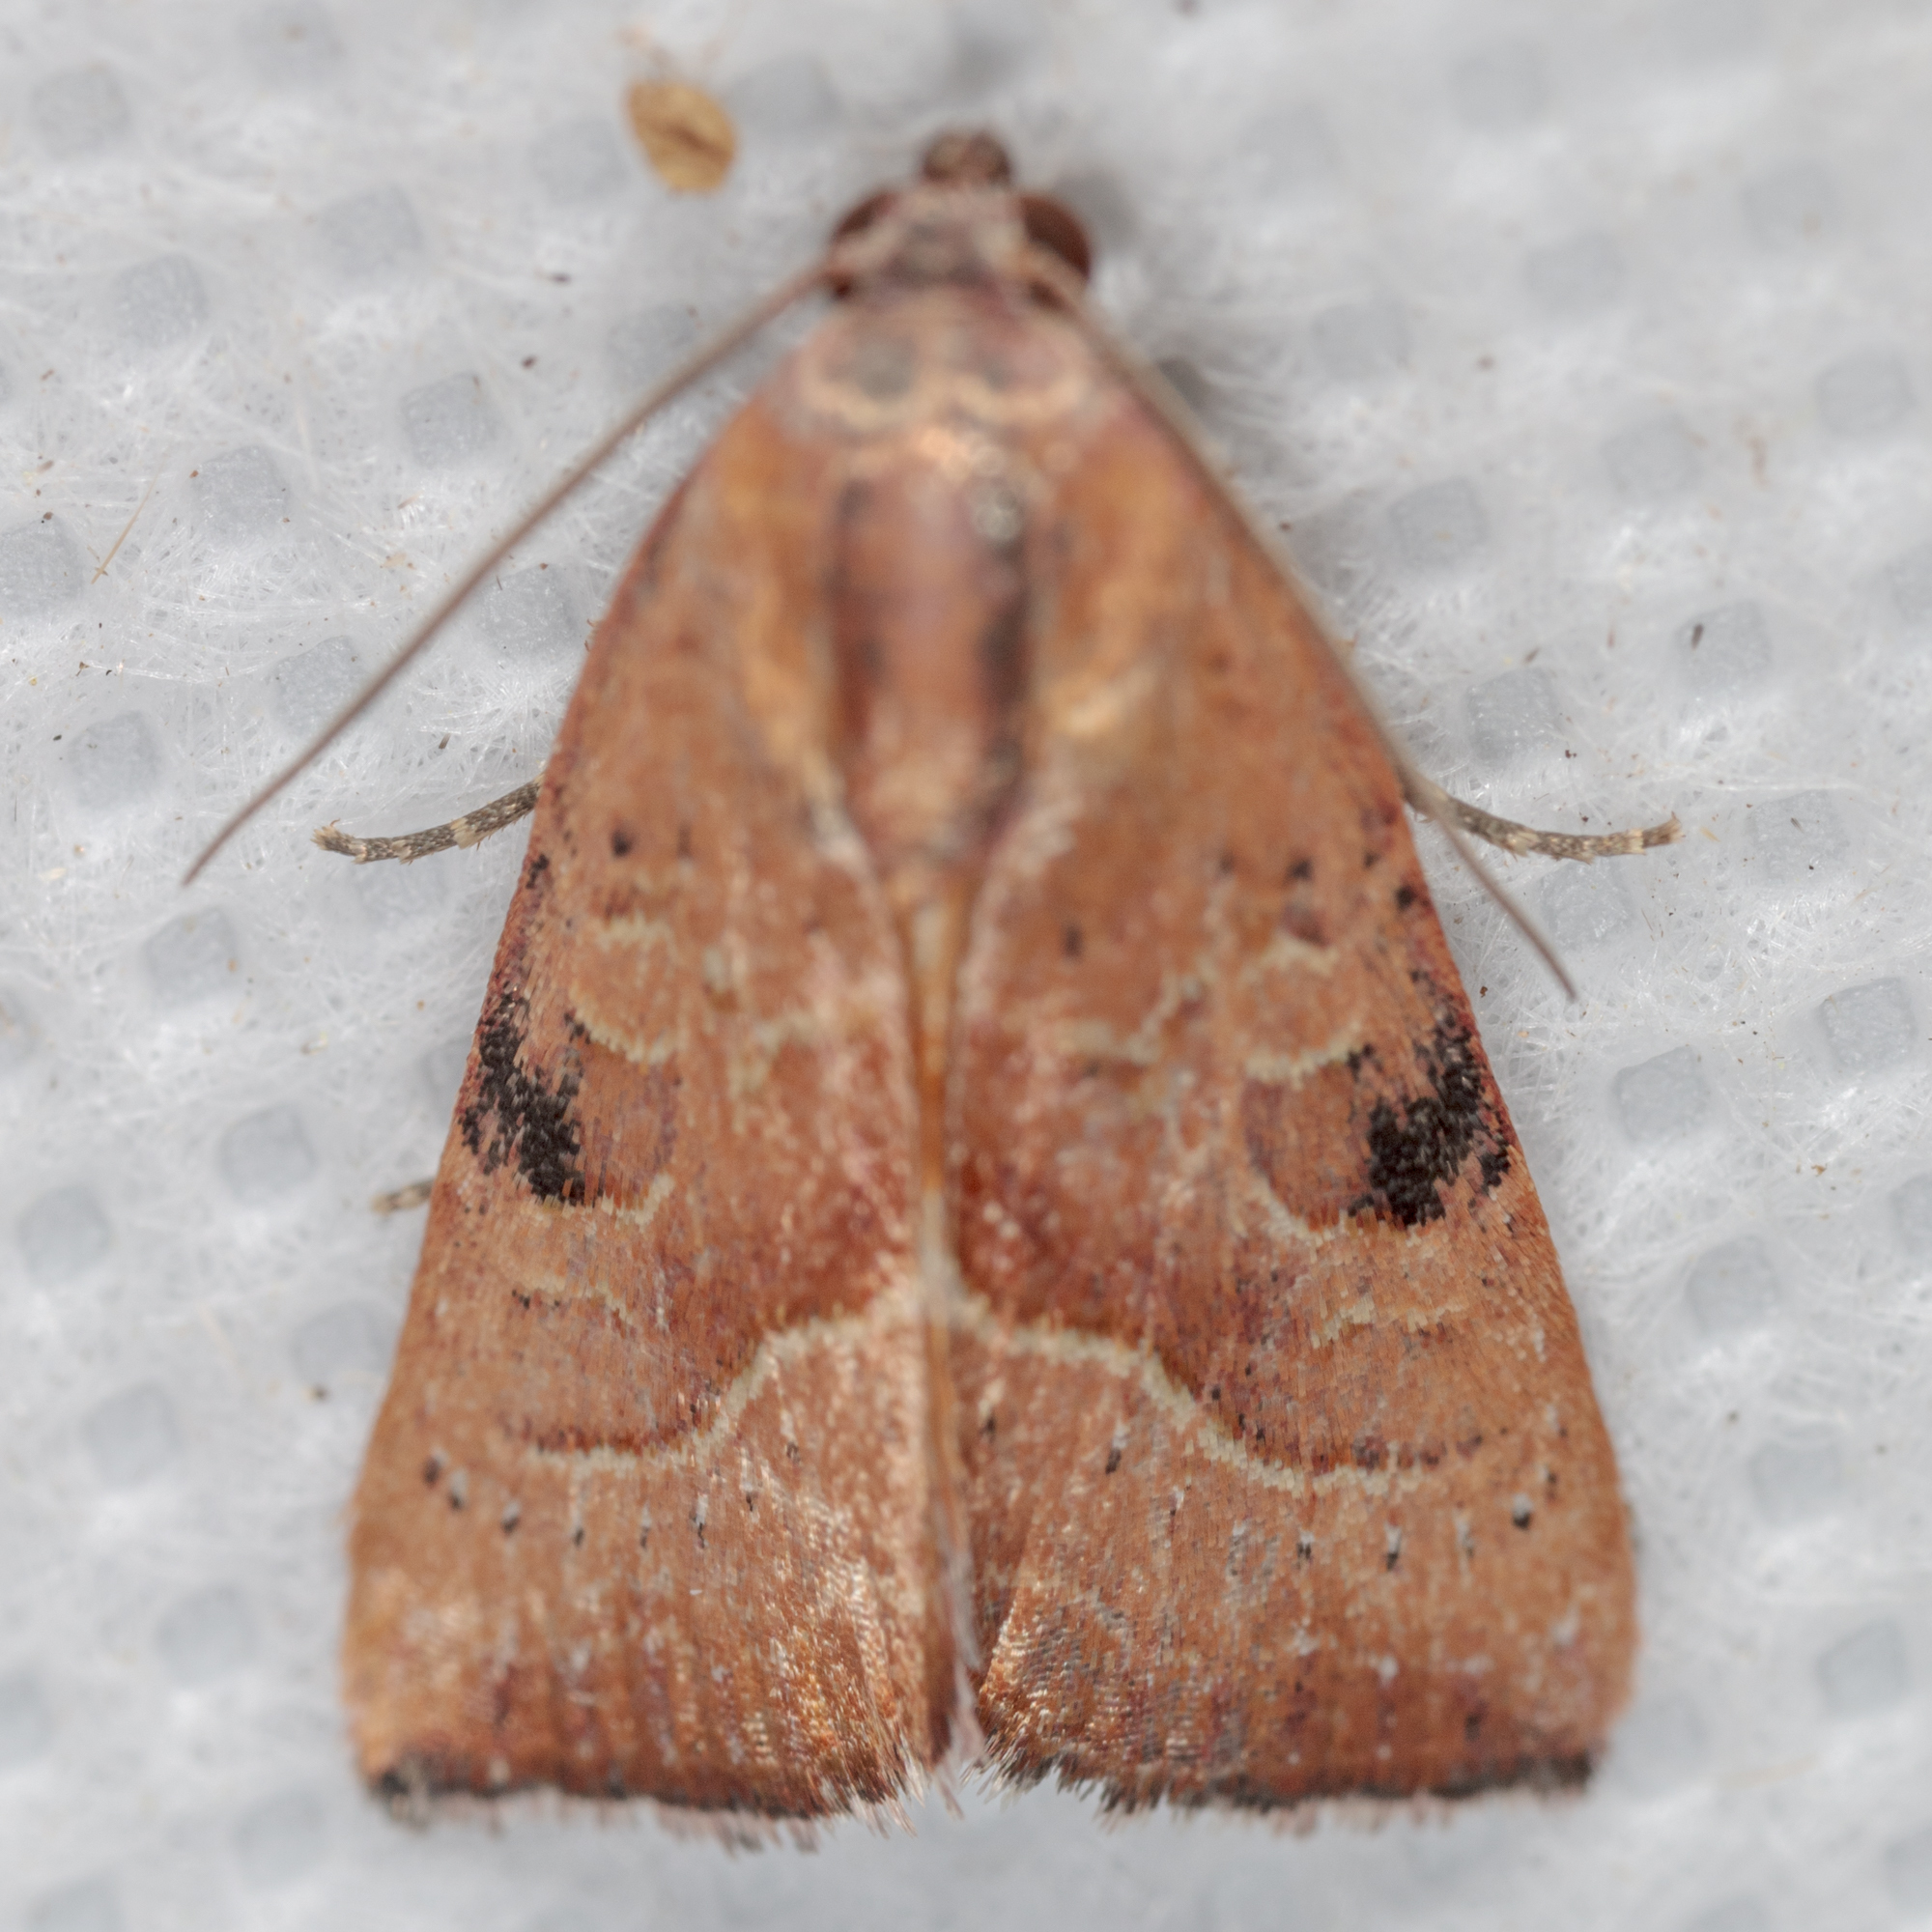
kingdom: Animalia
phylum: Arthropoda
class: Insecta
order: Lepidoptera
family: Noctuidae
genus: Galgula
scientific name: Galgula partita
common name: Wedgeling
